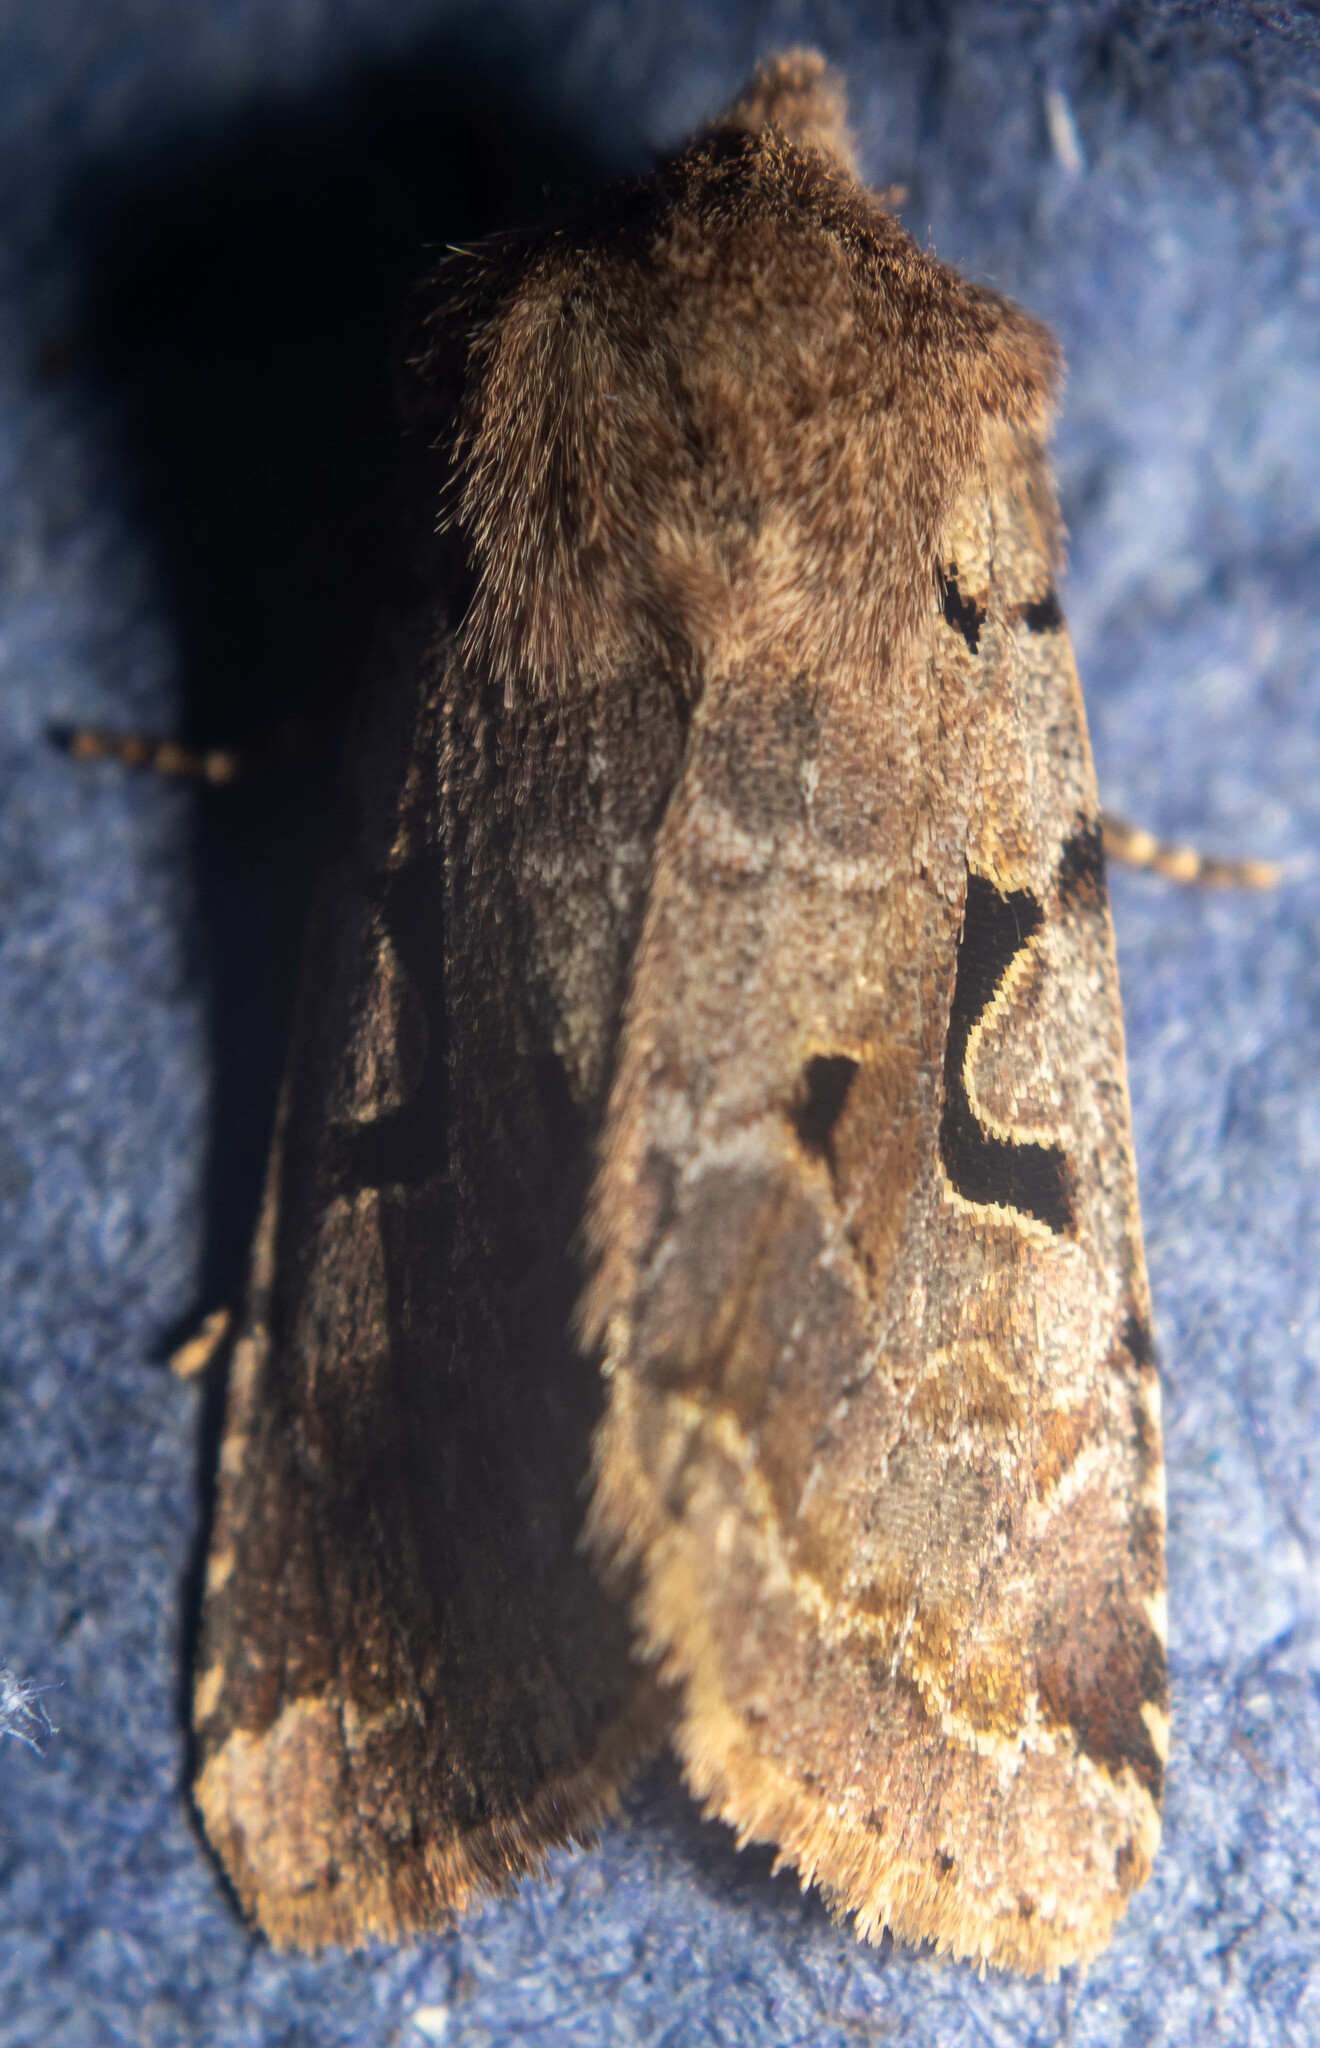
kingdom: Animalia
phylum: Arthropoda
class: Insecta
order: Lepidoptera
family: Noctuidae
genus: Orthosia
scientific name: Orthosia gothica
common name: Hebrew character
